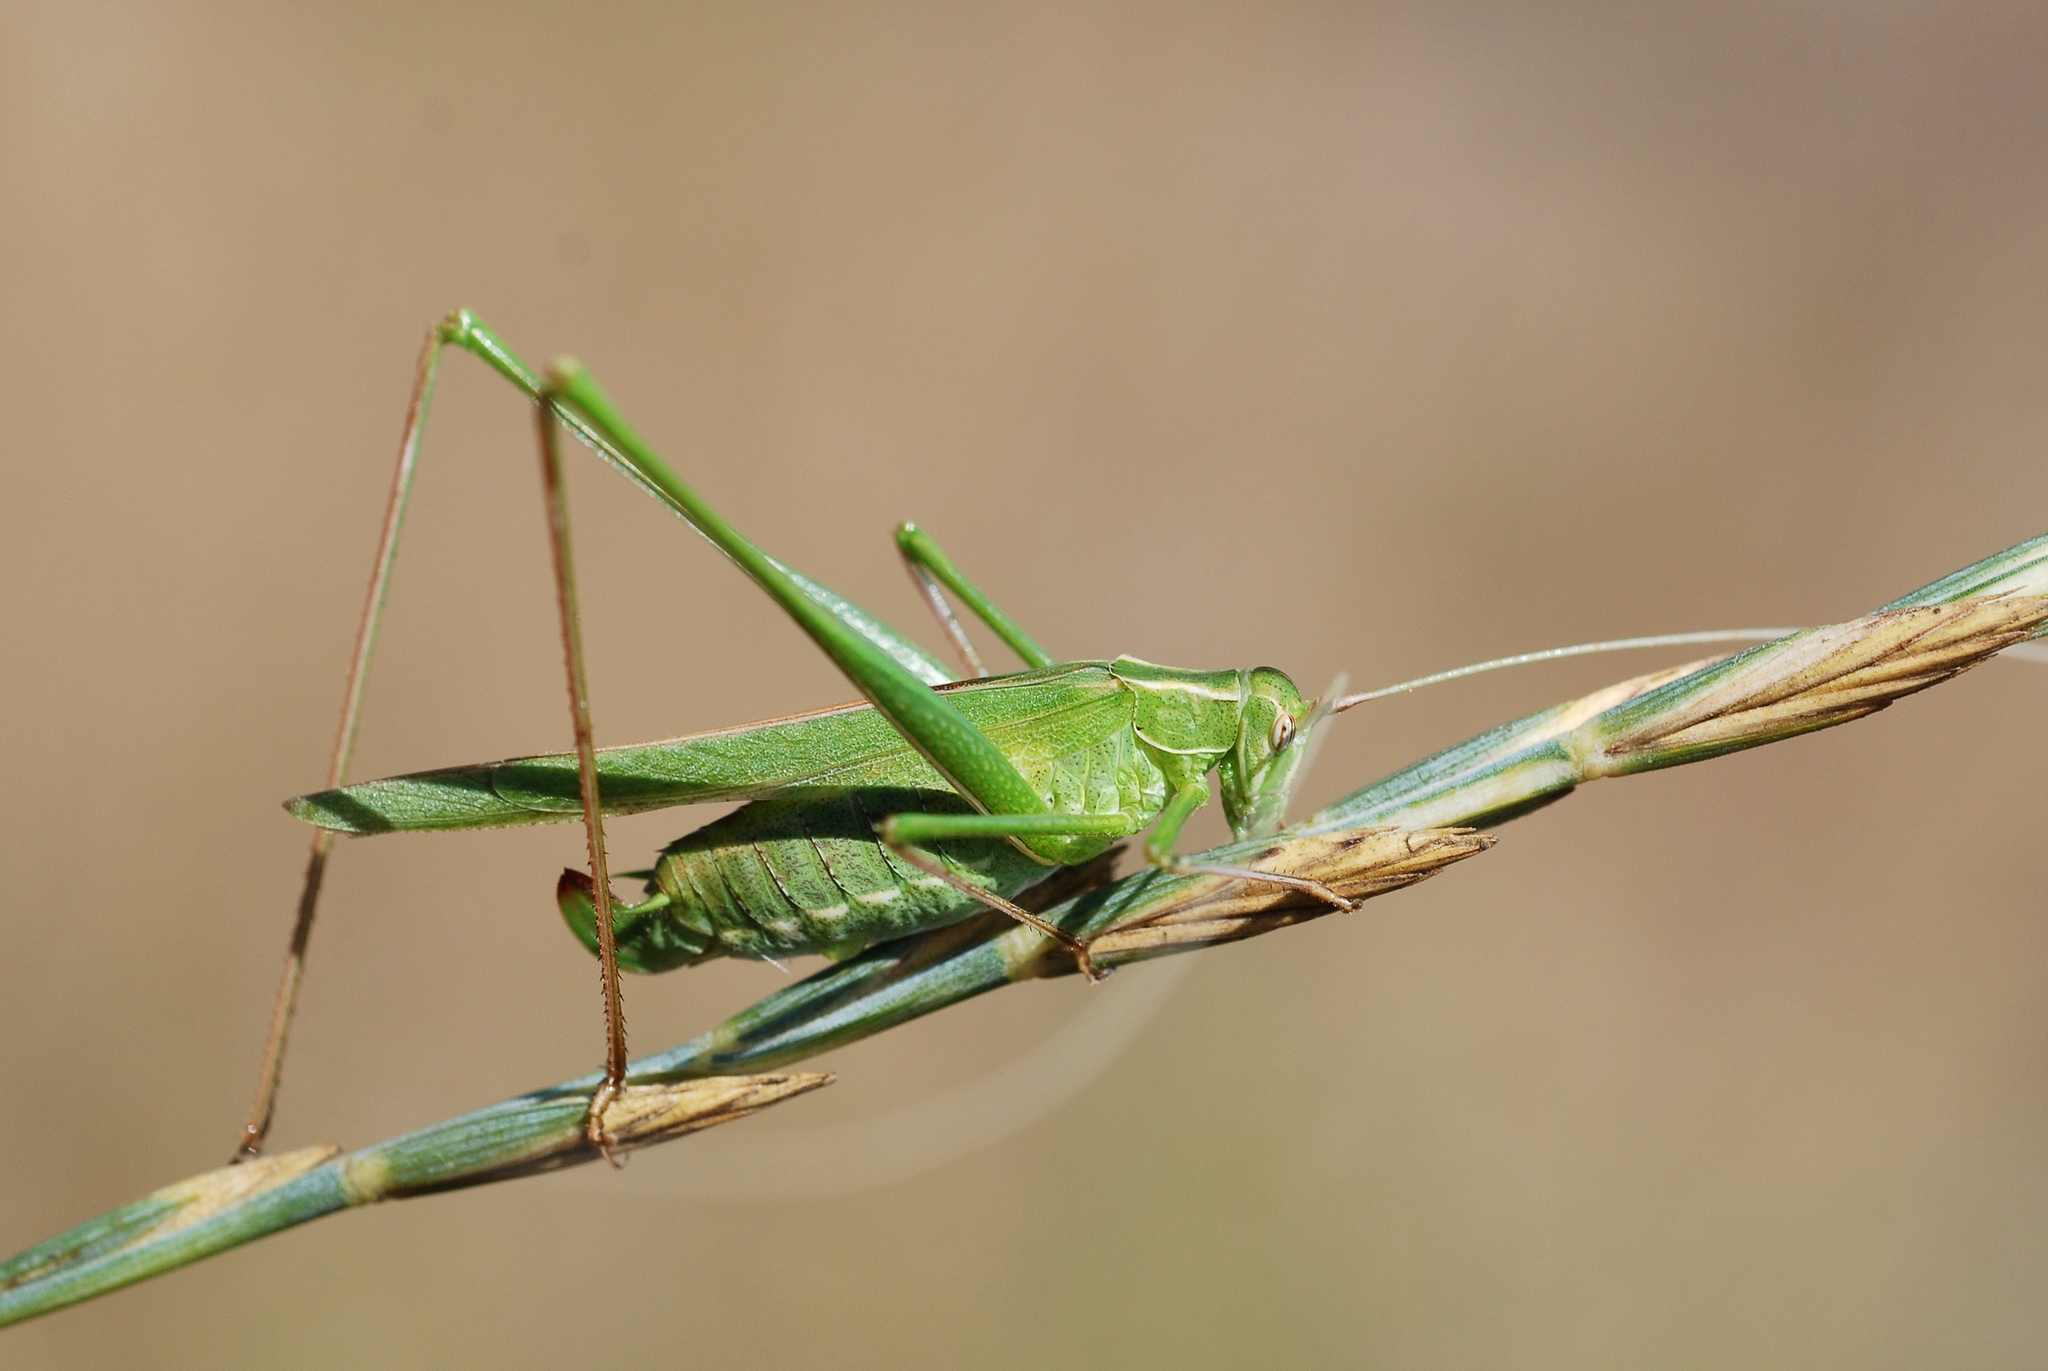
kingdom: Animalia
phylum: Arthropoda
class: Insecta
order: Orthoptera
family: Tettigoniidae
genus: Tylopsis
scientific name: Tylopsis lilifolia
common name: Lily bush-cricket
